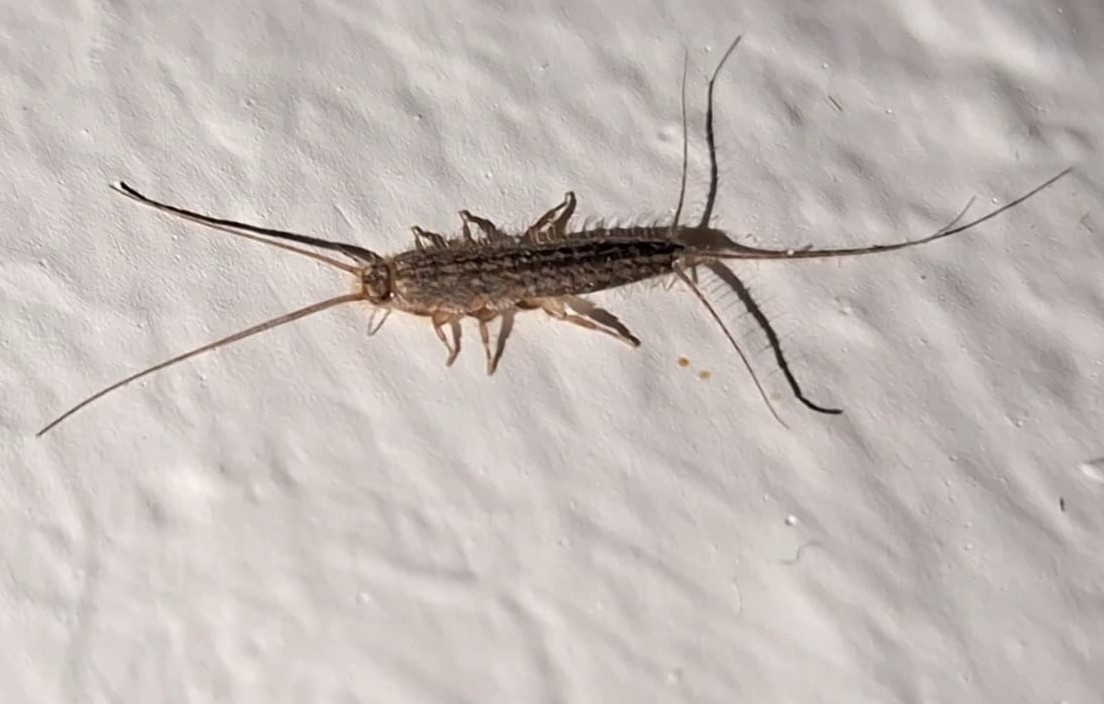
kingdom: Animalia
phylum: Arthropoda
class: Insecta
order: Zygentoma
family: Lepismatidae
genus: Ctenolepisma
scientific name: Ctenolepisma lineata
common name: Four-lined silverfish
